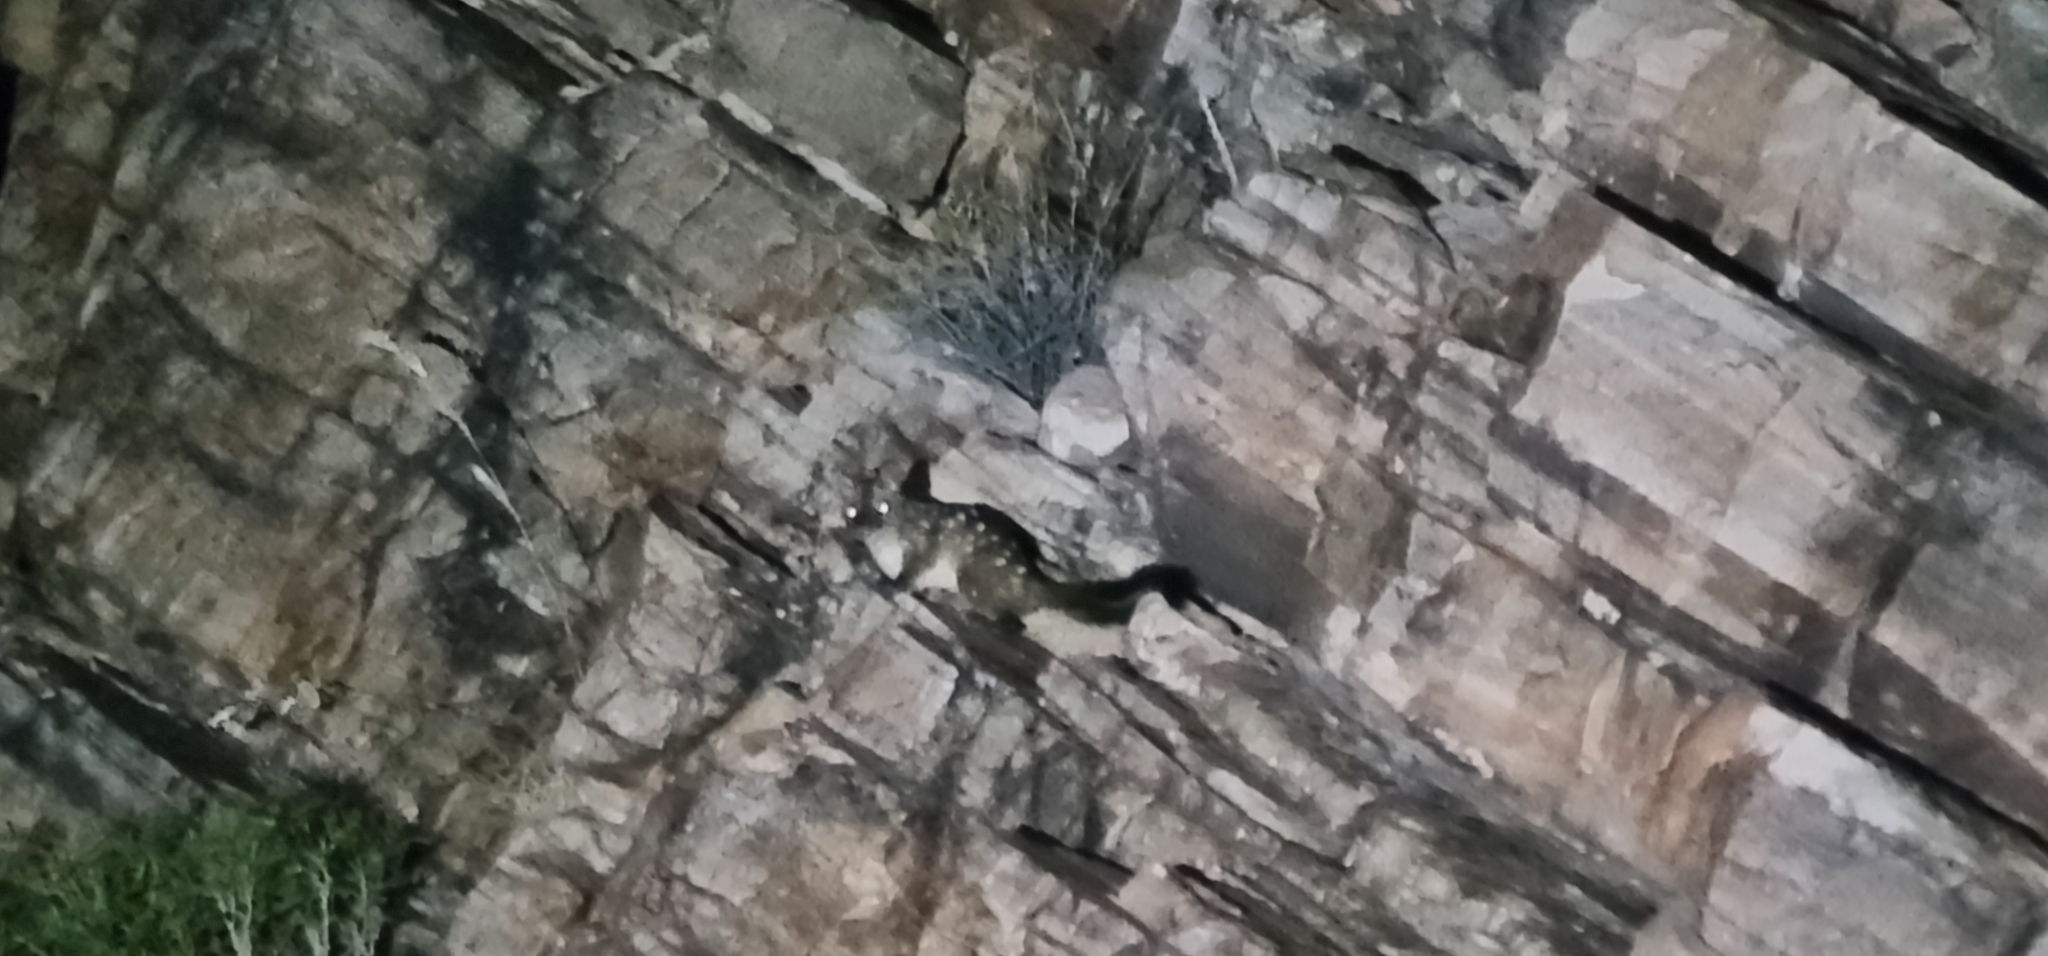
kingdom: Animalia
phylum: Chordata
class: Mammalia
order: Dasyuromorphia
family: Dasyuridae
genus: Dasyurus
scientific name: Dasyurus geoffroii
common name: Western quoll
